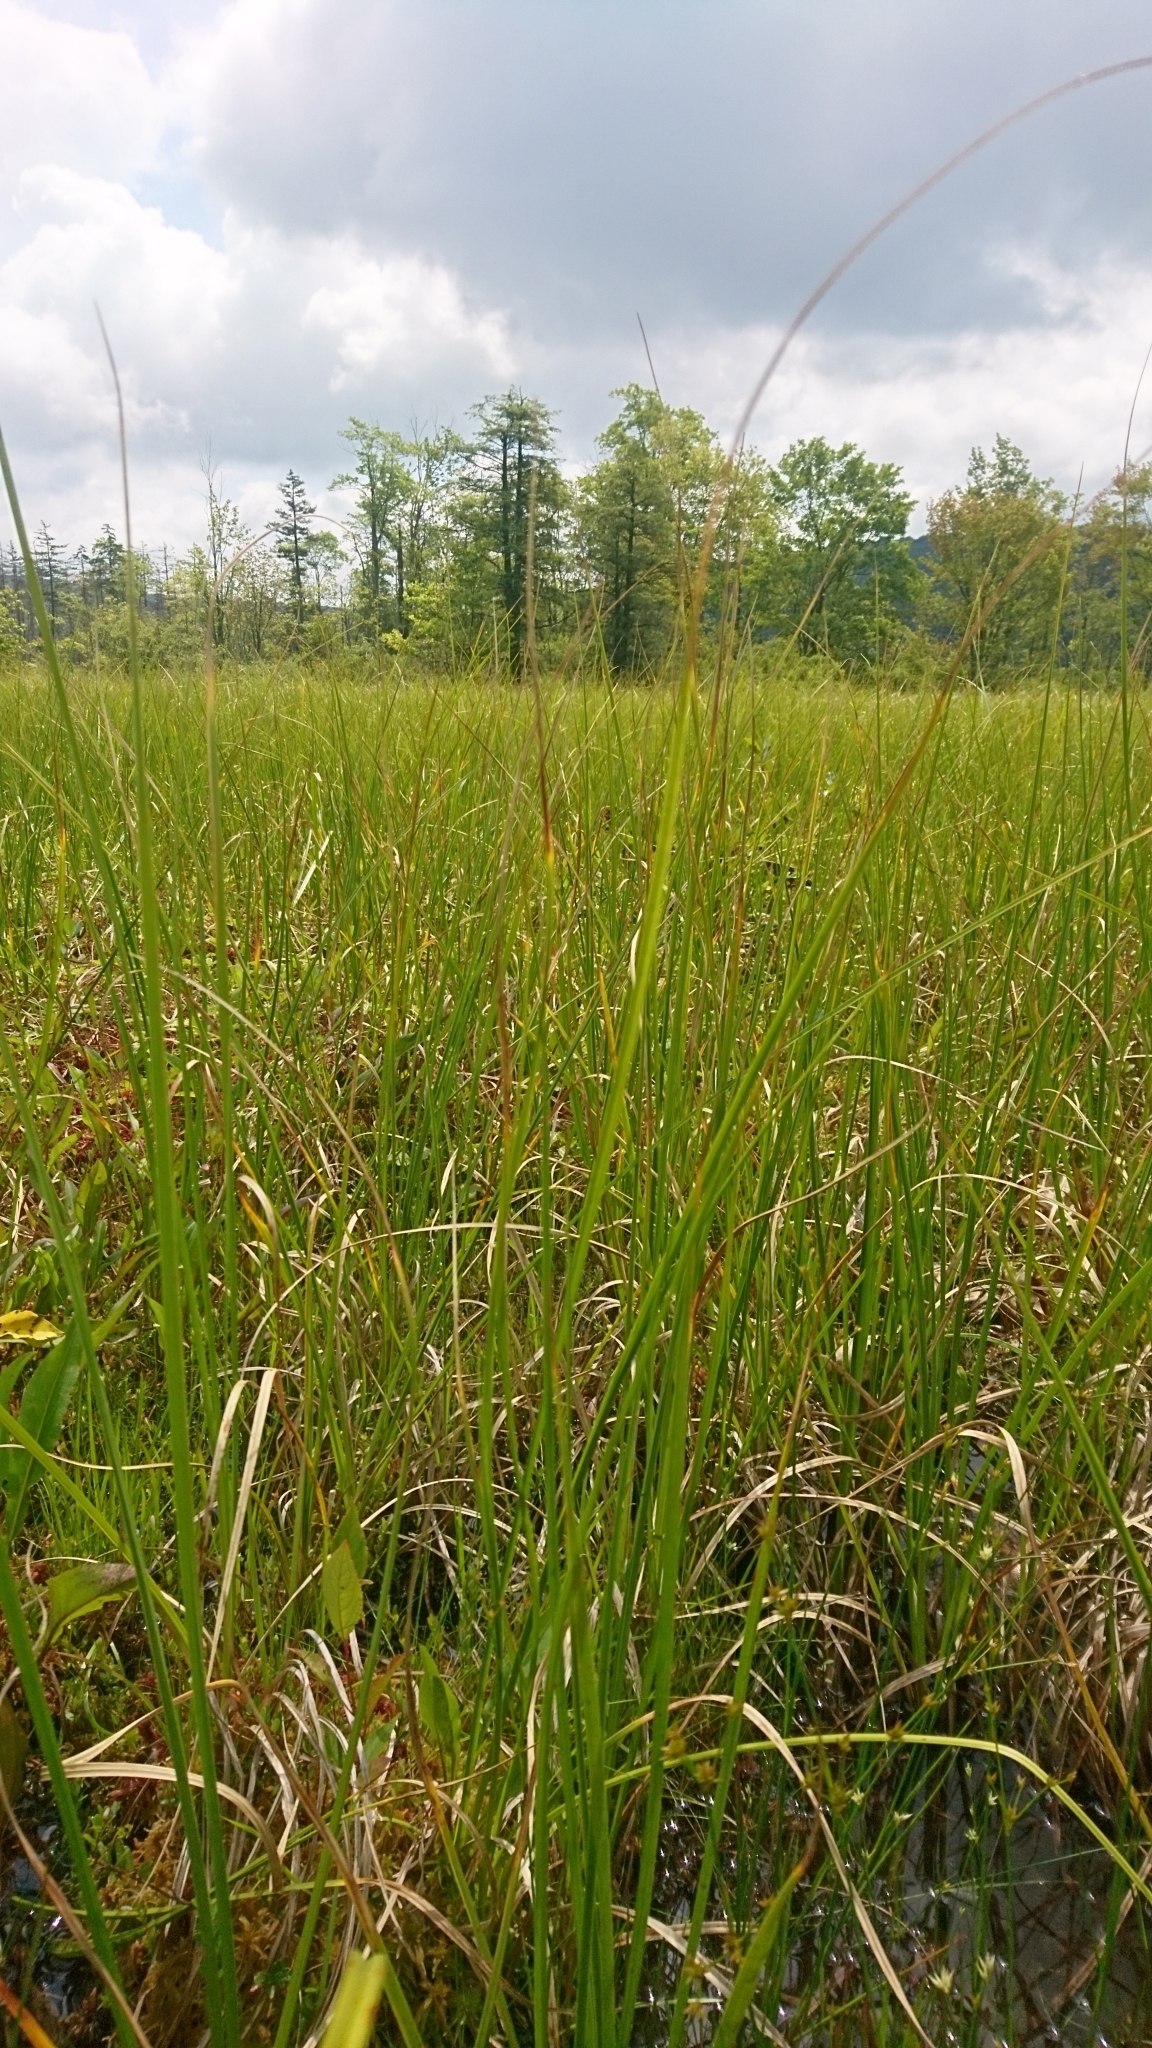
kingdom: Plantae
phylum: Tracheophyta
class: Liliopsida
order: Poales
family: Cyperaceae
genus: Carex
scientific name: Carex utriculata
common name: Beaked sedge
